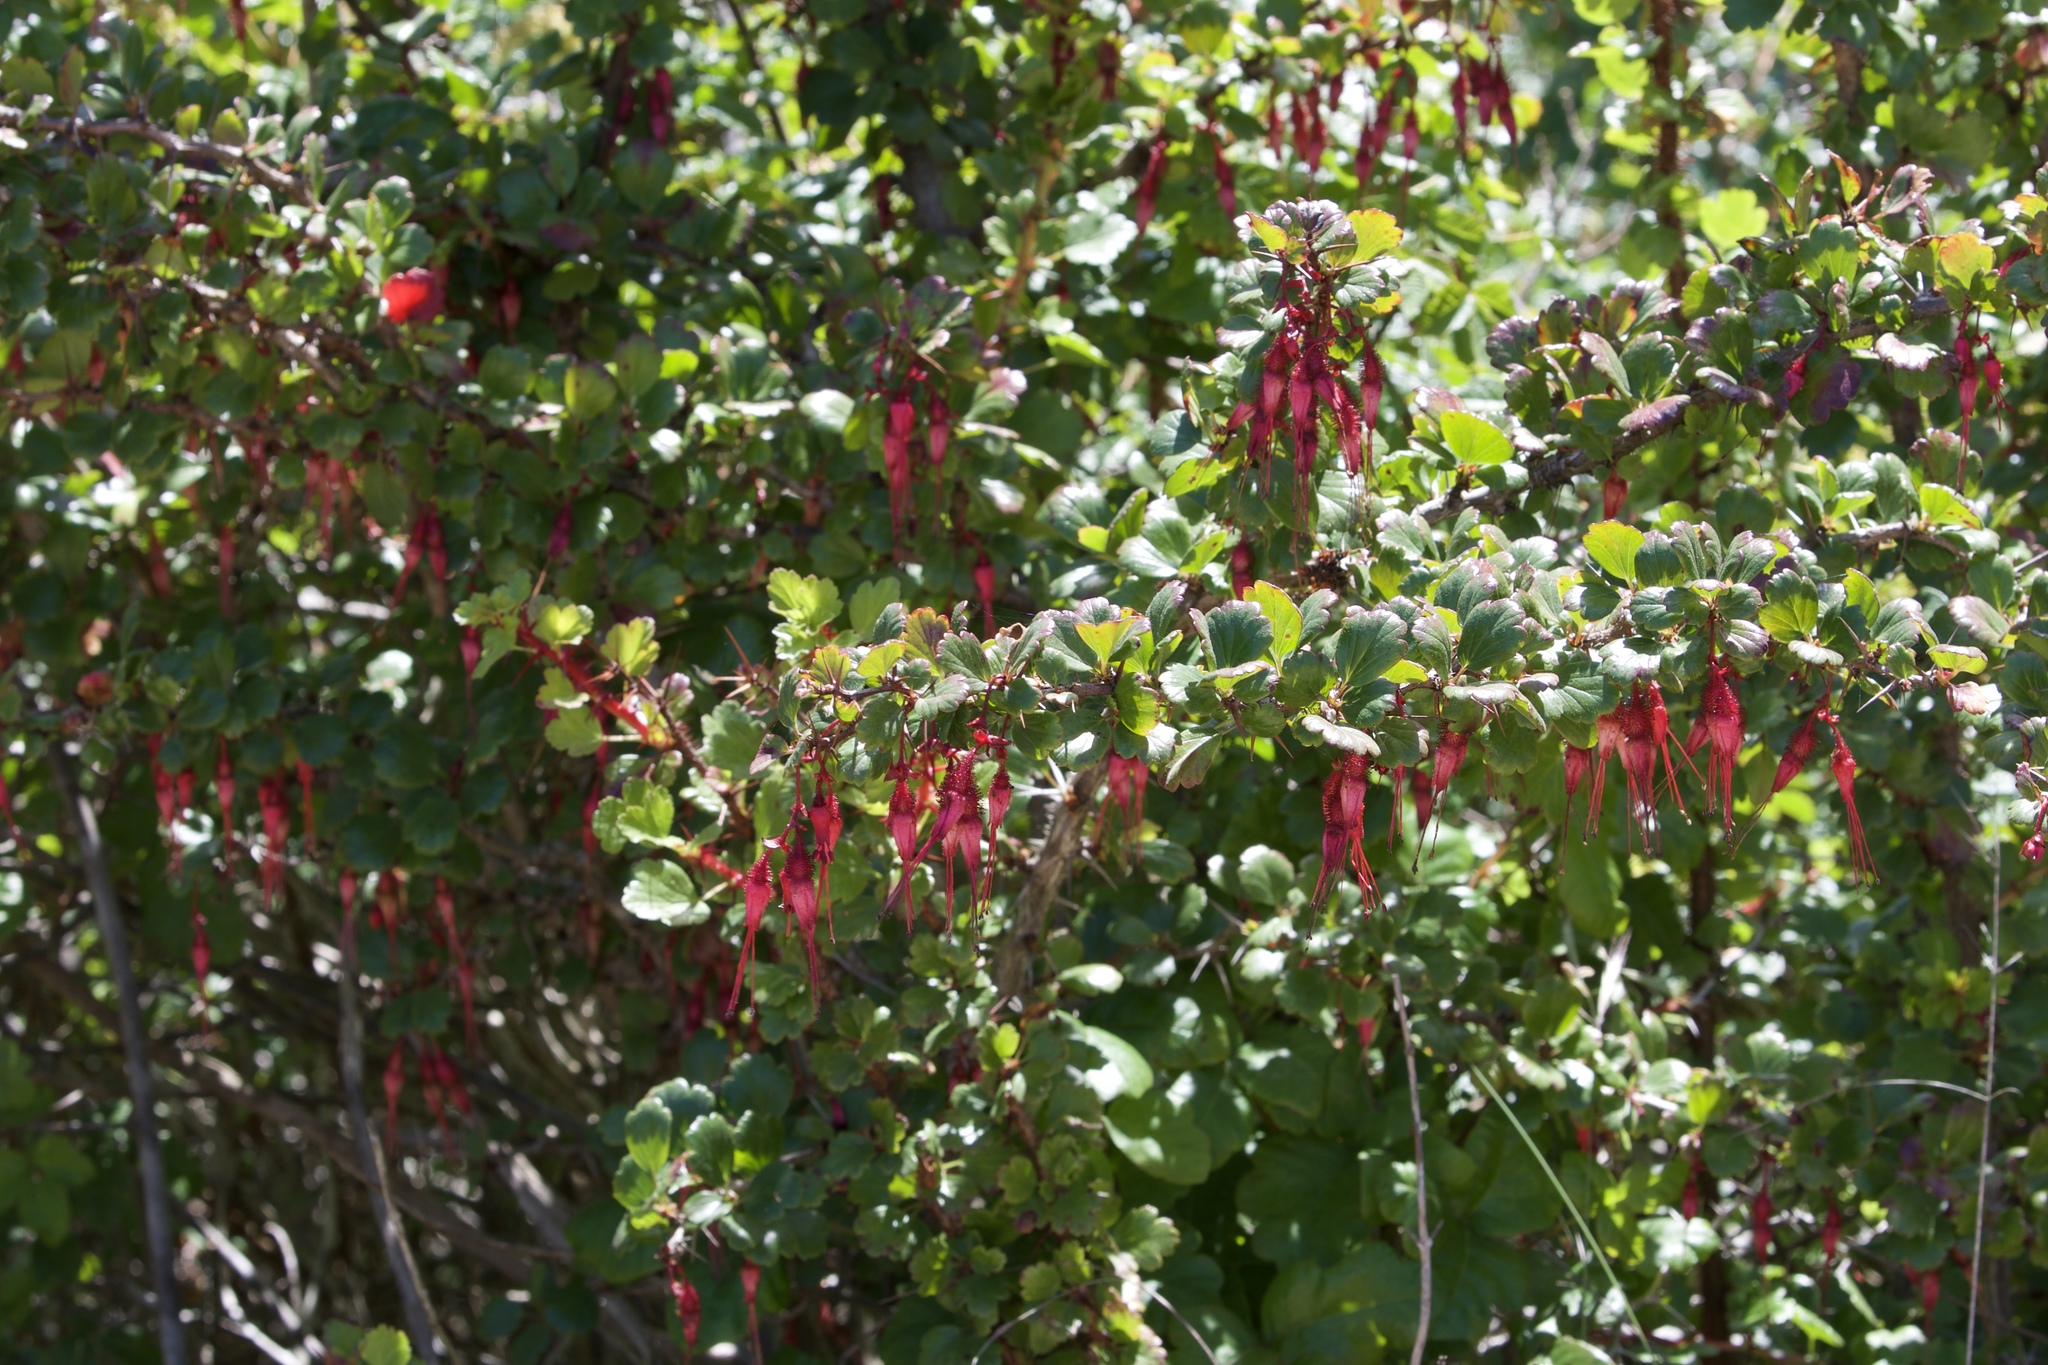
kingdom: Plantae
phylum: Tracheophyta
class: Magnoliopsida
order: Saxifragales
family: Grossulariaceae
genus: Ribes
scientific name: Ribes speciosum
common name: Fuchsia-flower gooseberry
